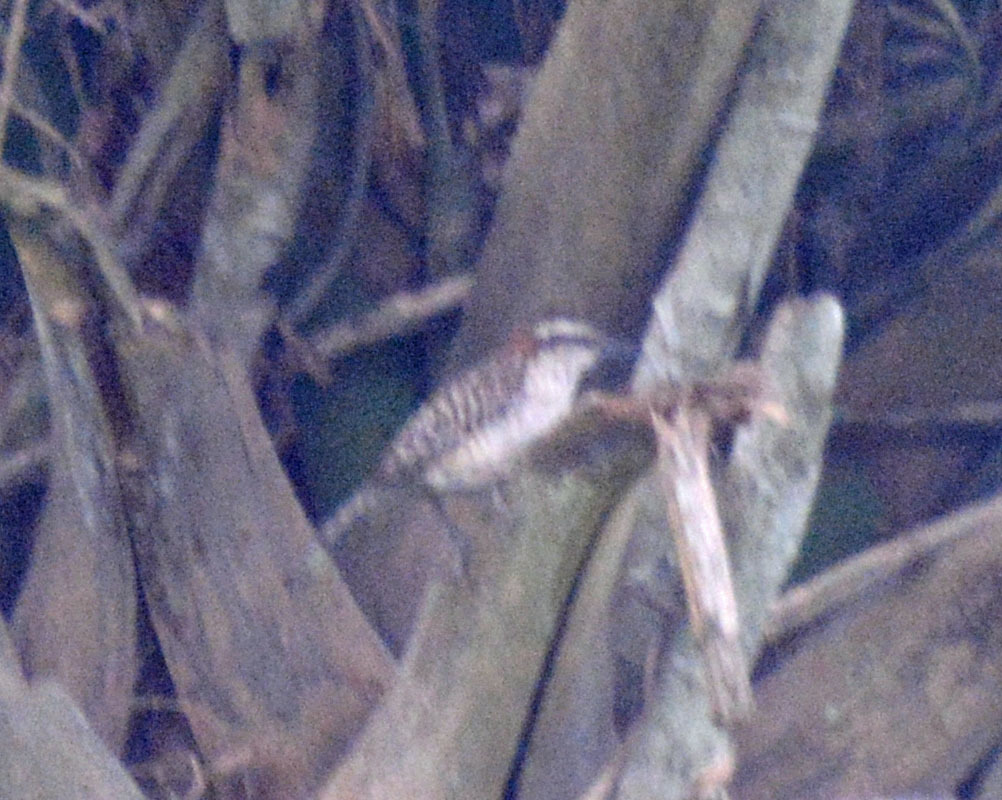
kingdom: Animalia
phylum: Chordata
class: Aves
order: Passeriformes
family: Troglodytidae
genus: Campylorhynchus
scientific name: Campylorhynchus rufinucha
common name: Rufous-naped wren
